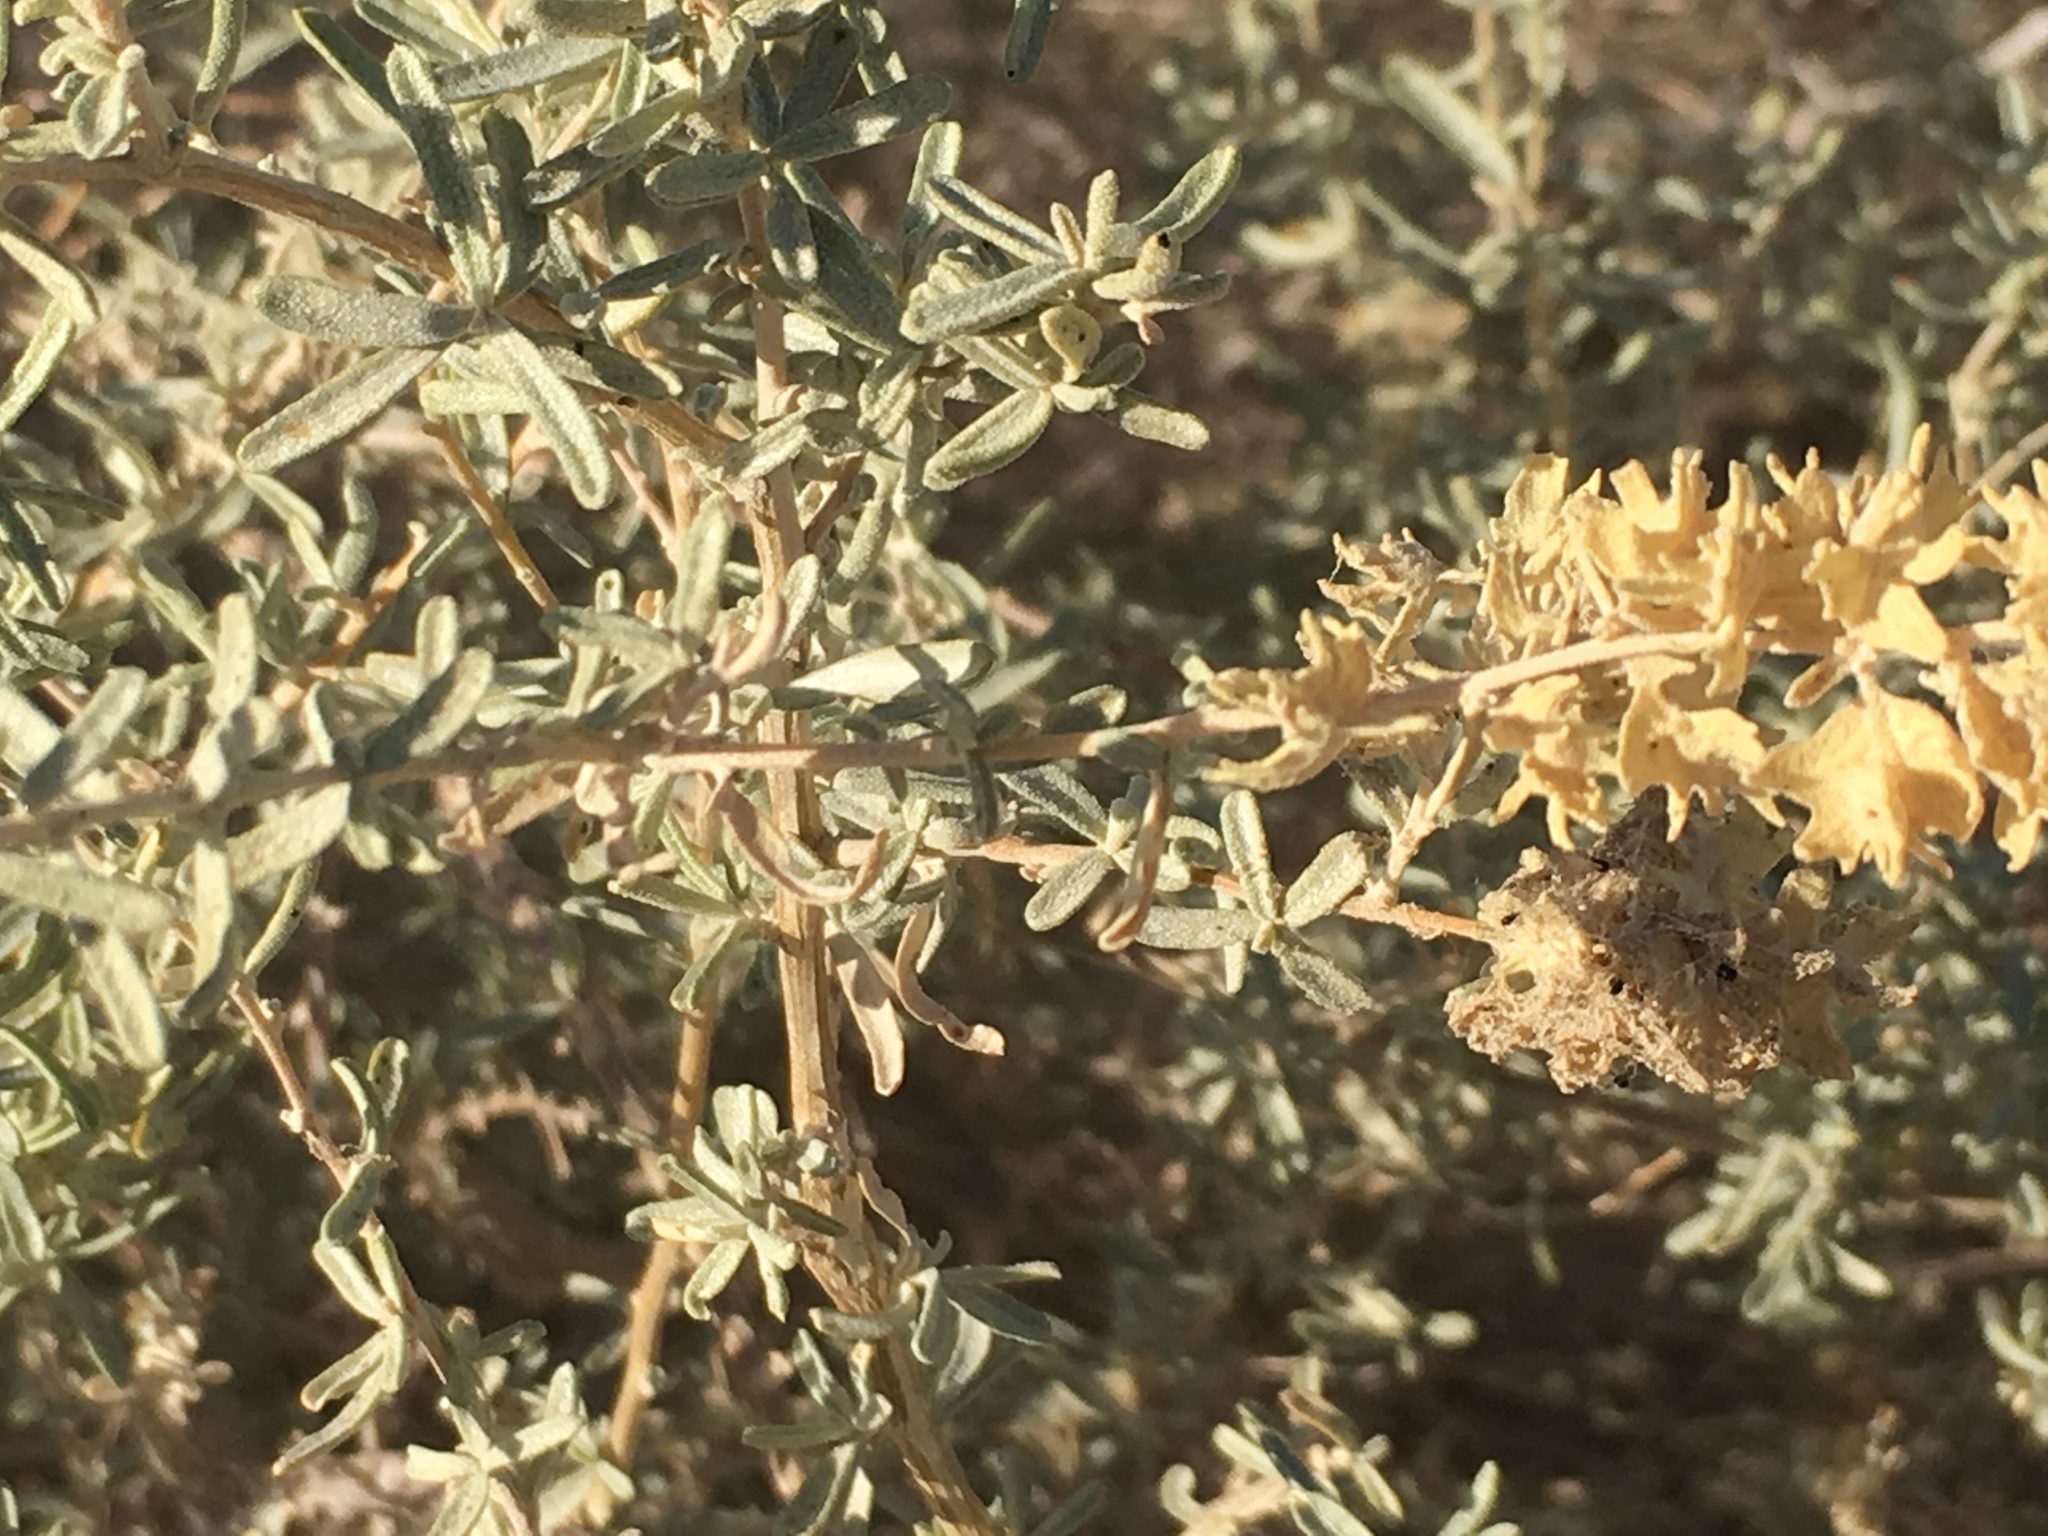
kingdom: Plantae
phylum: Tracheophyta
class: Magnoliopsida
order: Caryophyllales
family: Amaranthaceae
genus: Atriplex
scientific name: Atriplex canescens
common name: Four-wing saltbush
